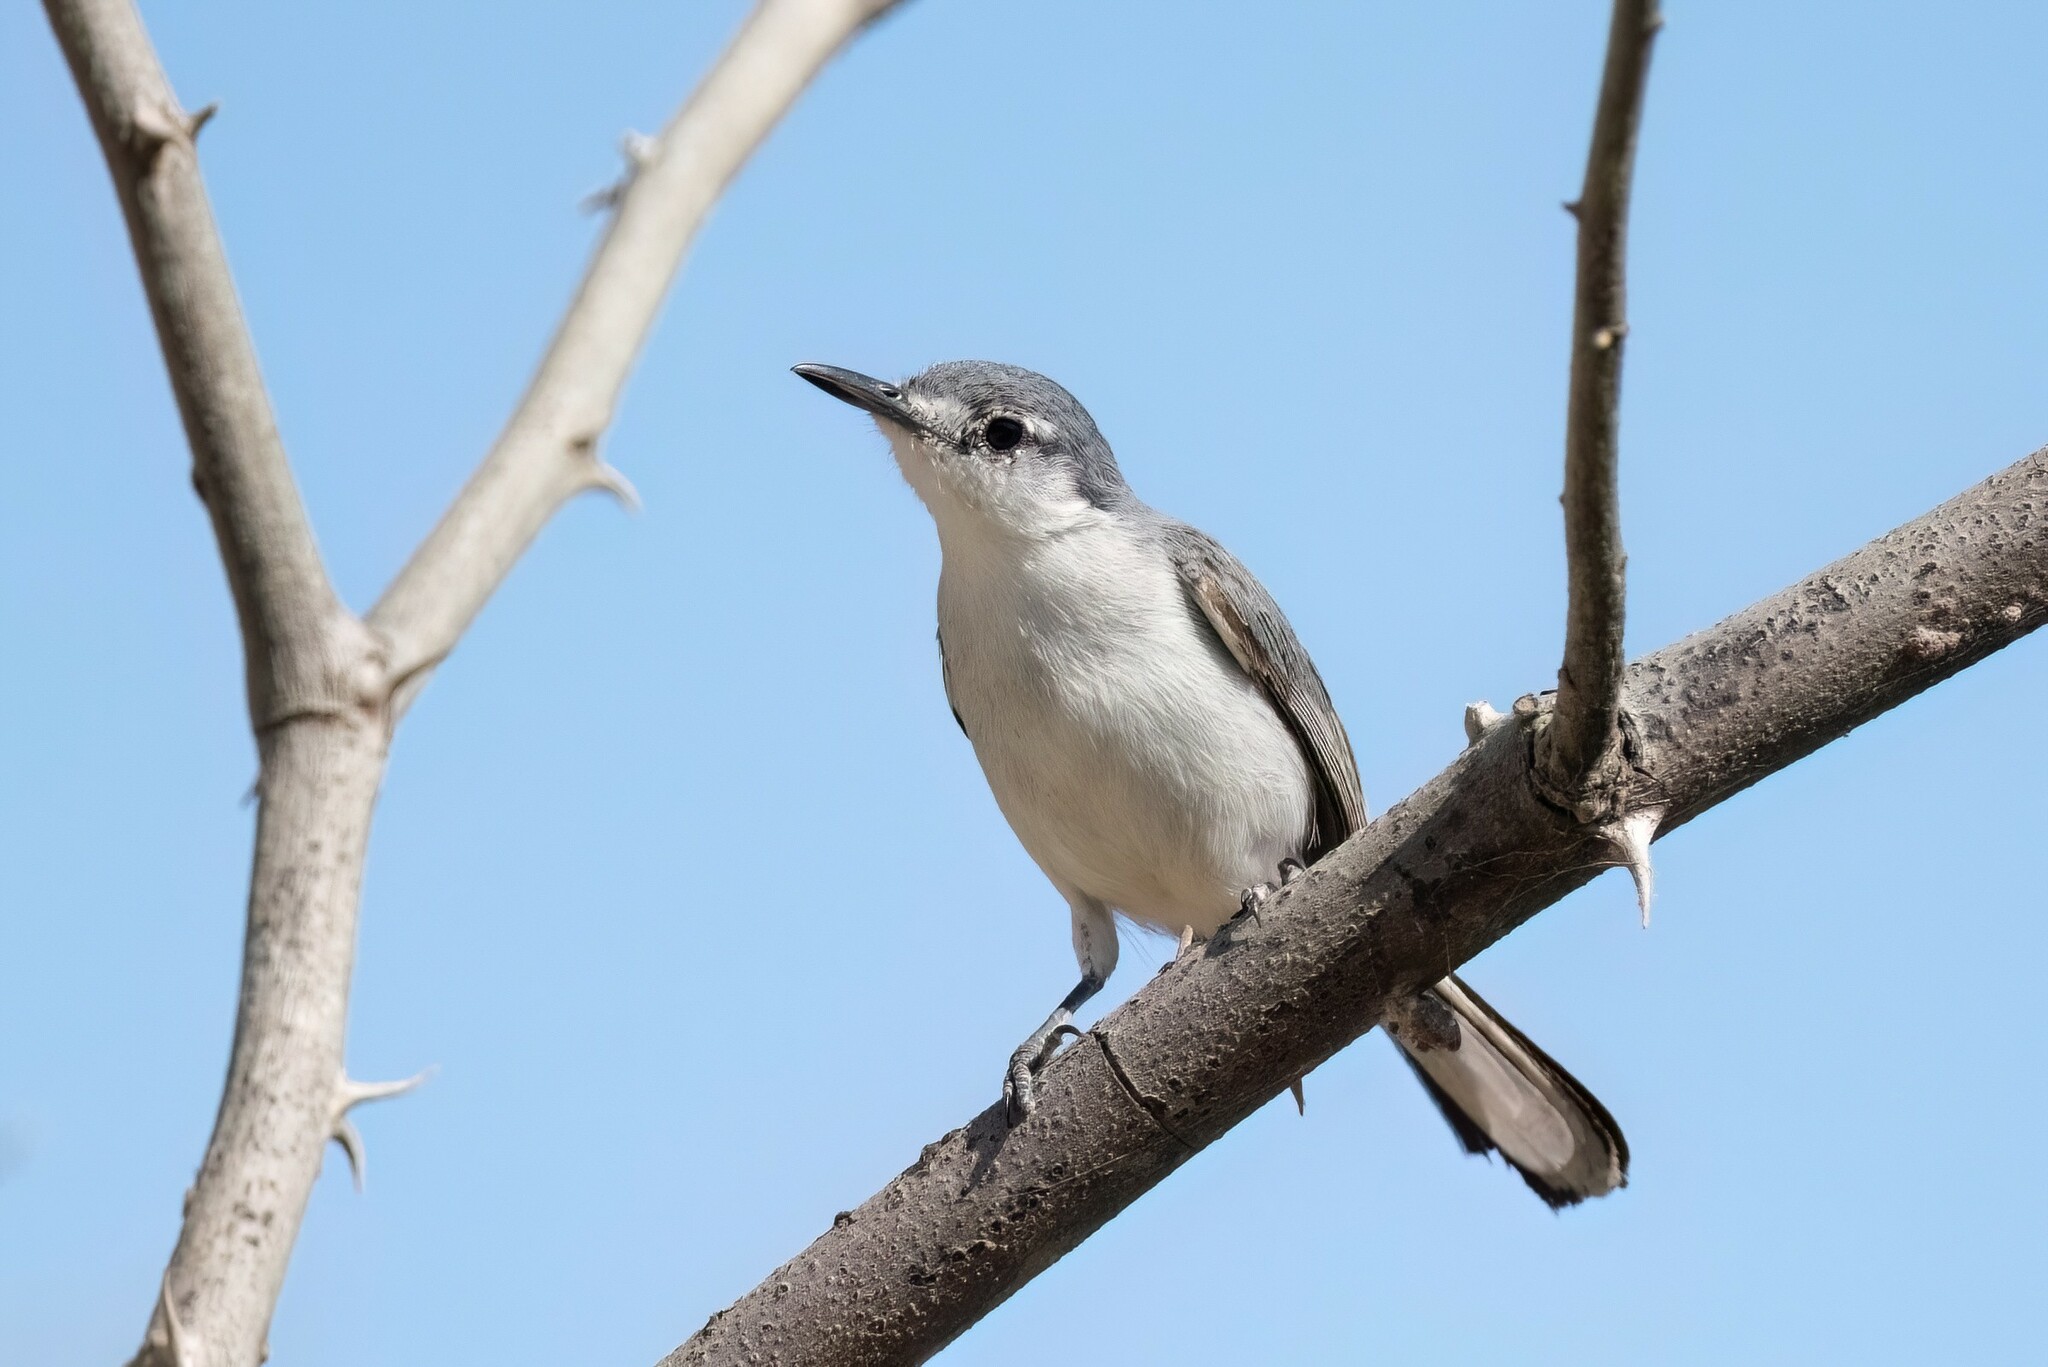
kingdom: Animalia
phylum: Chordata
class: Aves
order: Passeriformes
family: Polioptilidae
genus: Polioptila
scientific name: Polioptila albiloris
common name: White-lored gnatcatcher
